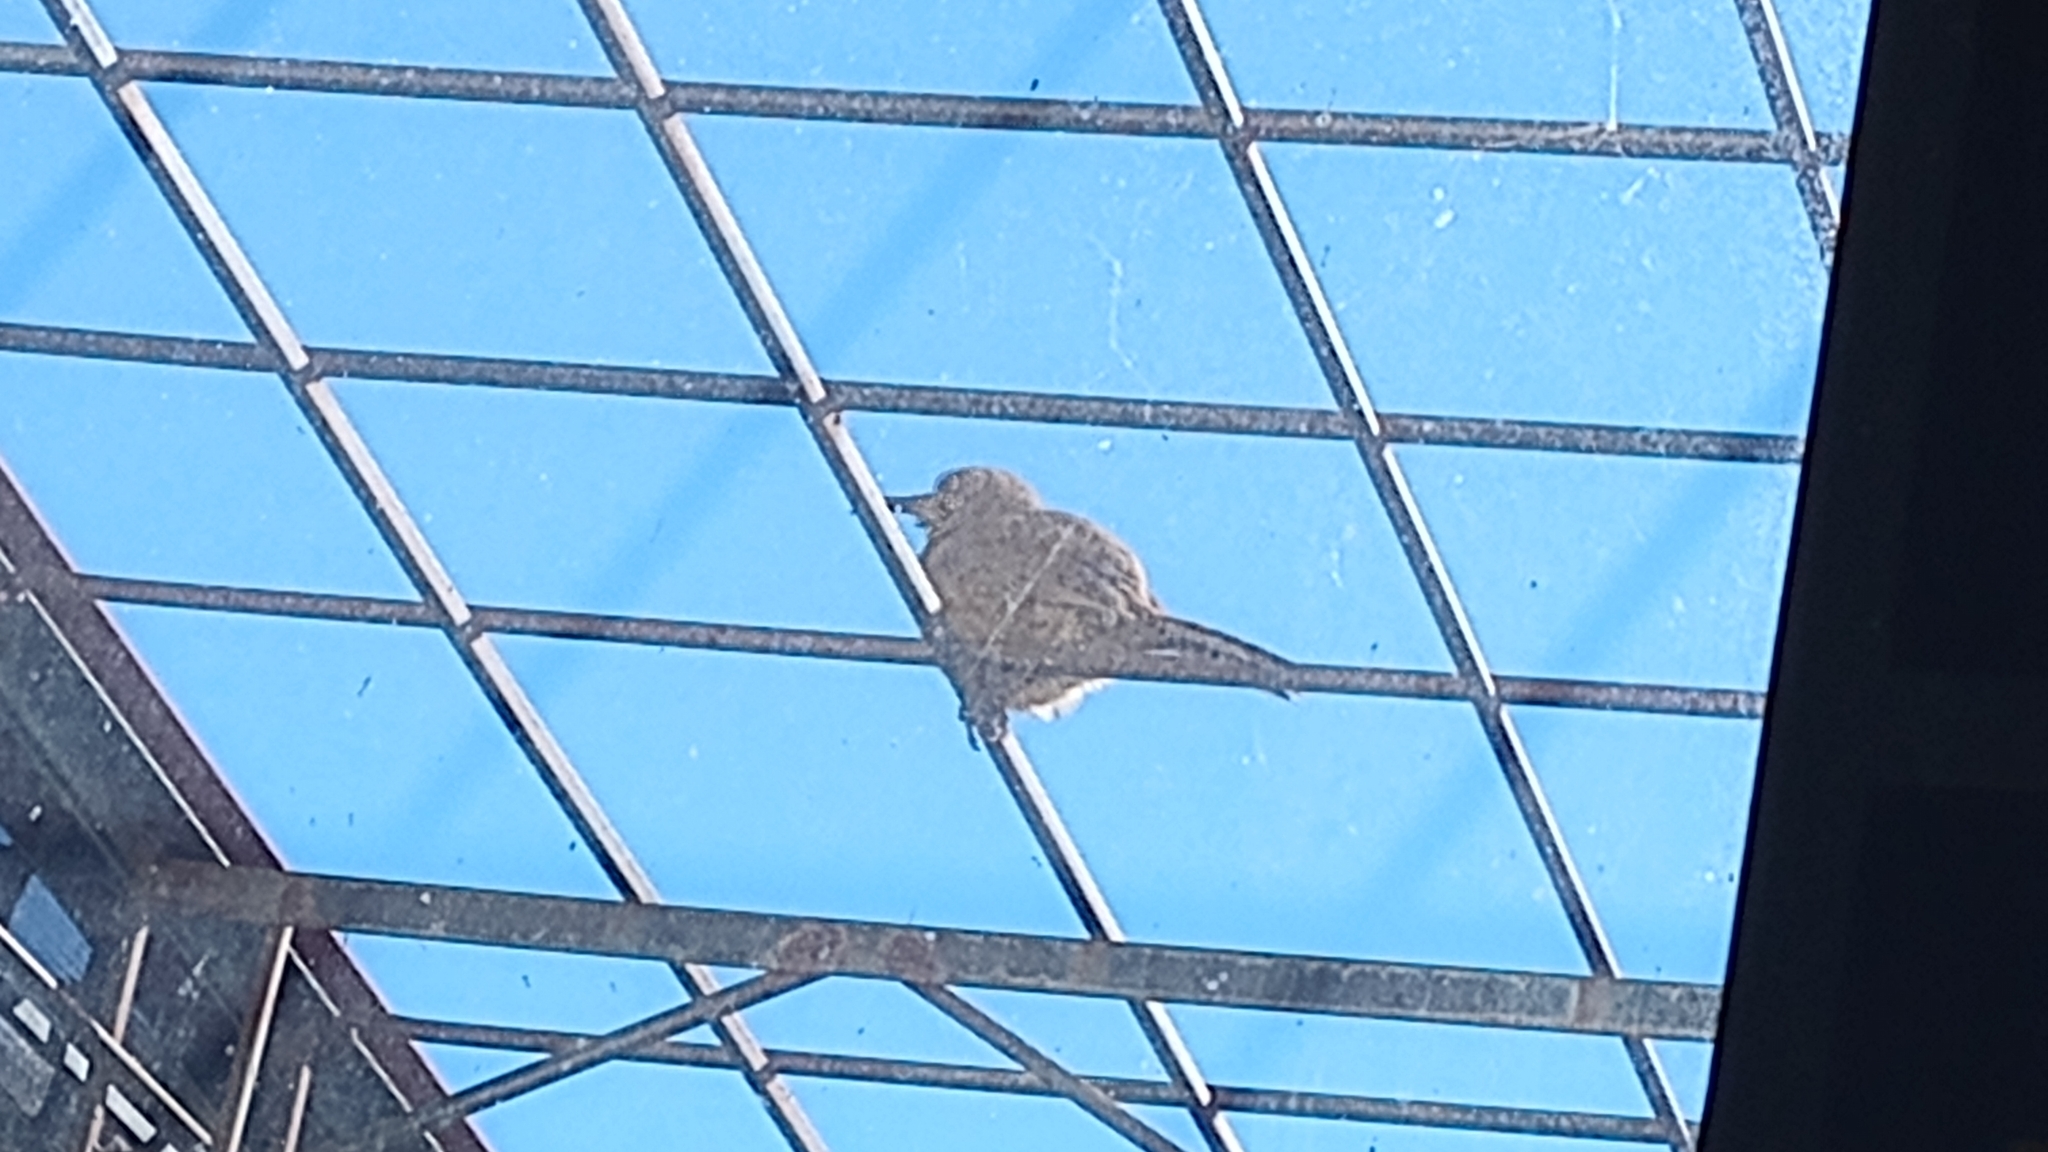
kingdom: Animalia
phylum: Chordata
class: Aves
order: Passeriformes
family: Mimidae
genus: Toxostoma
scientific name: Toxostoma curvirostre
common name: Curve-billed thrasher
